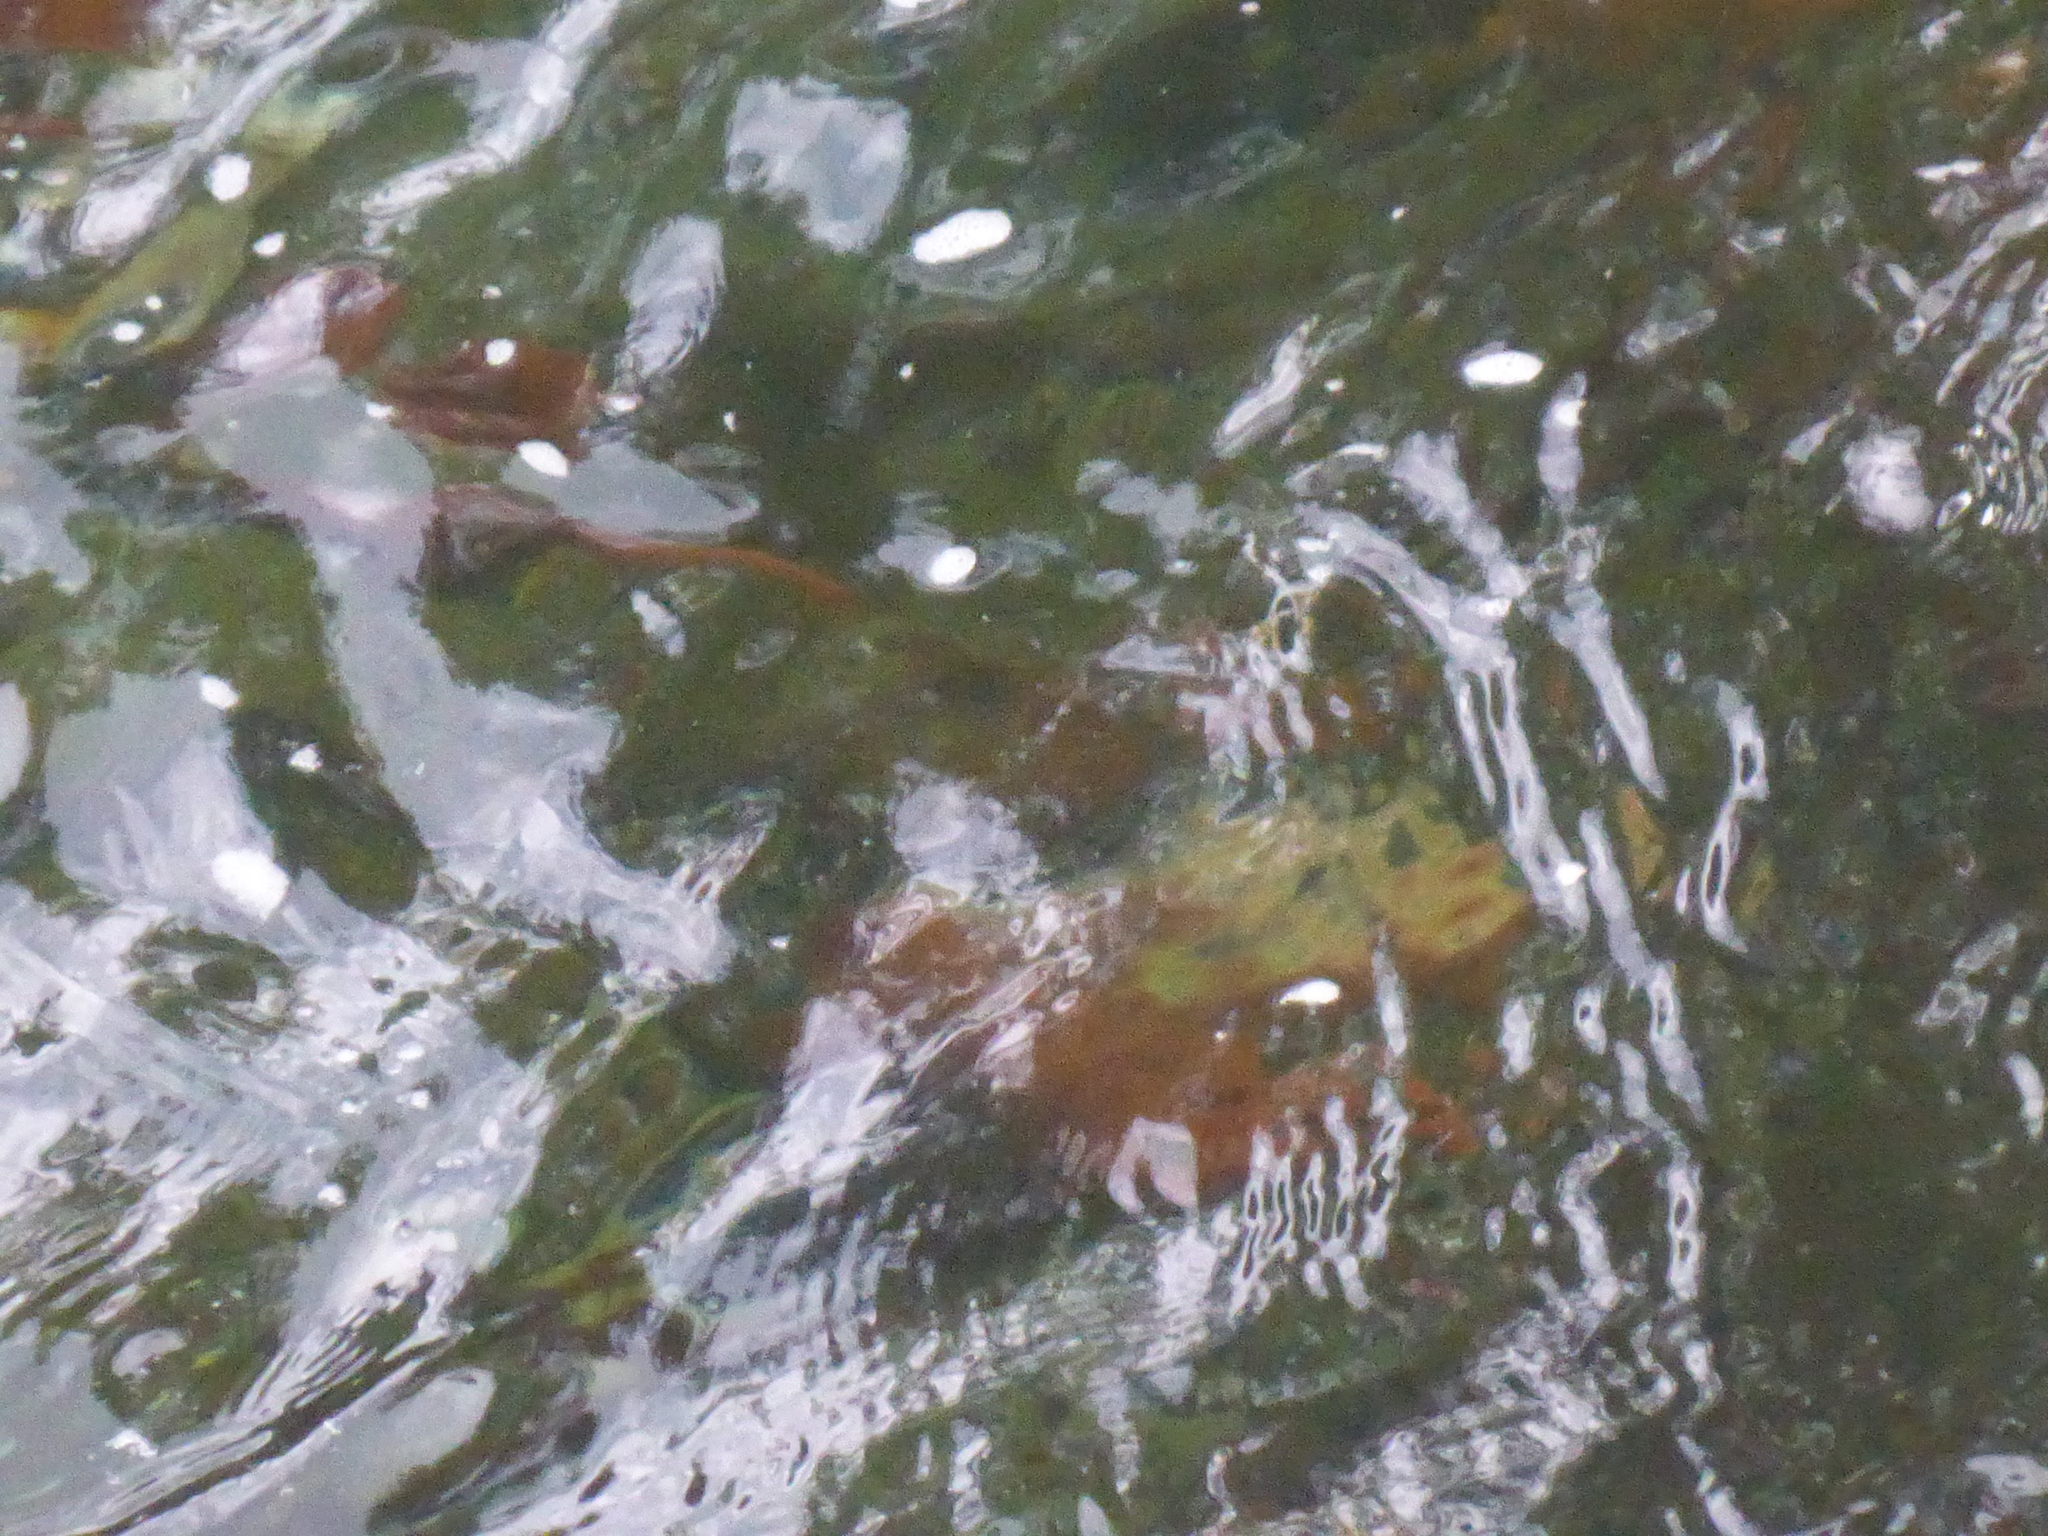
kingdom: Animalia
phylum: Chordata
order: Salmoniformes
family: Salmonidae
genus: Oncorhynchus
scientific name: Oncorhynchus nerka
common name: Sockeye salmon
